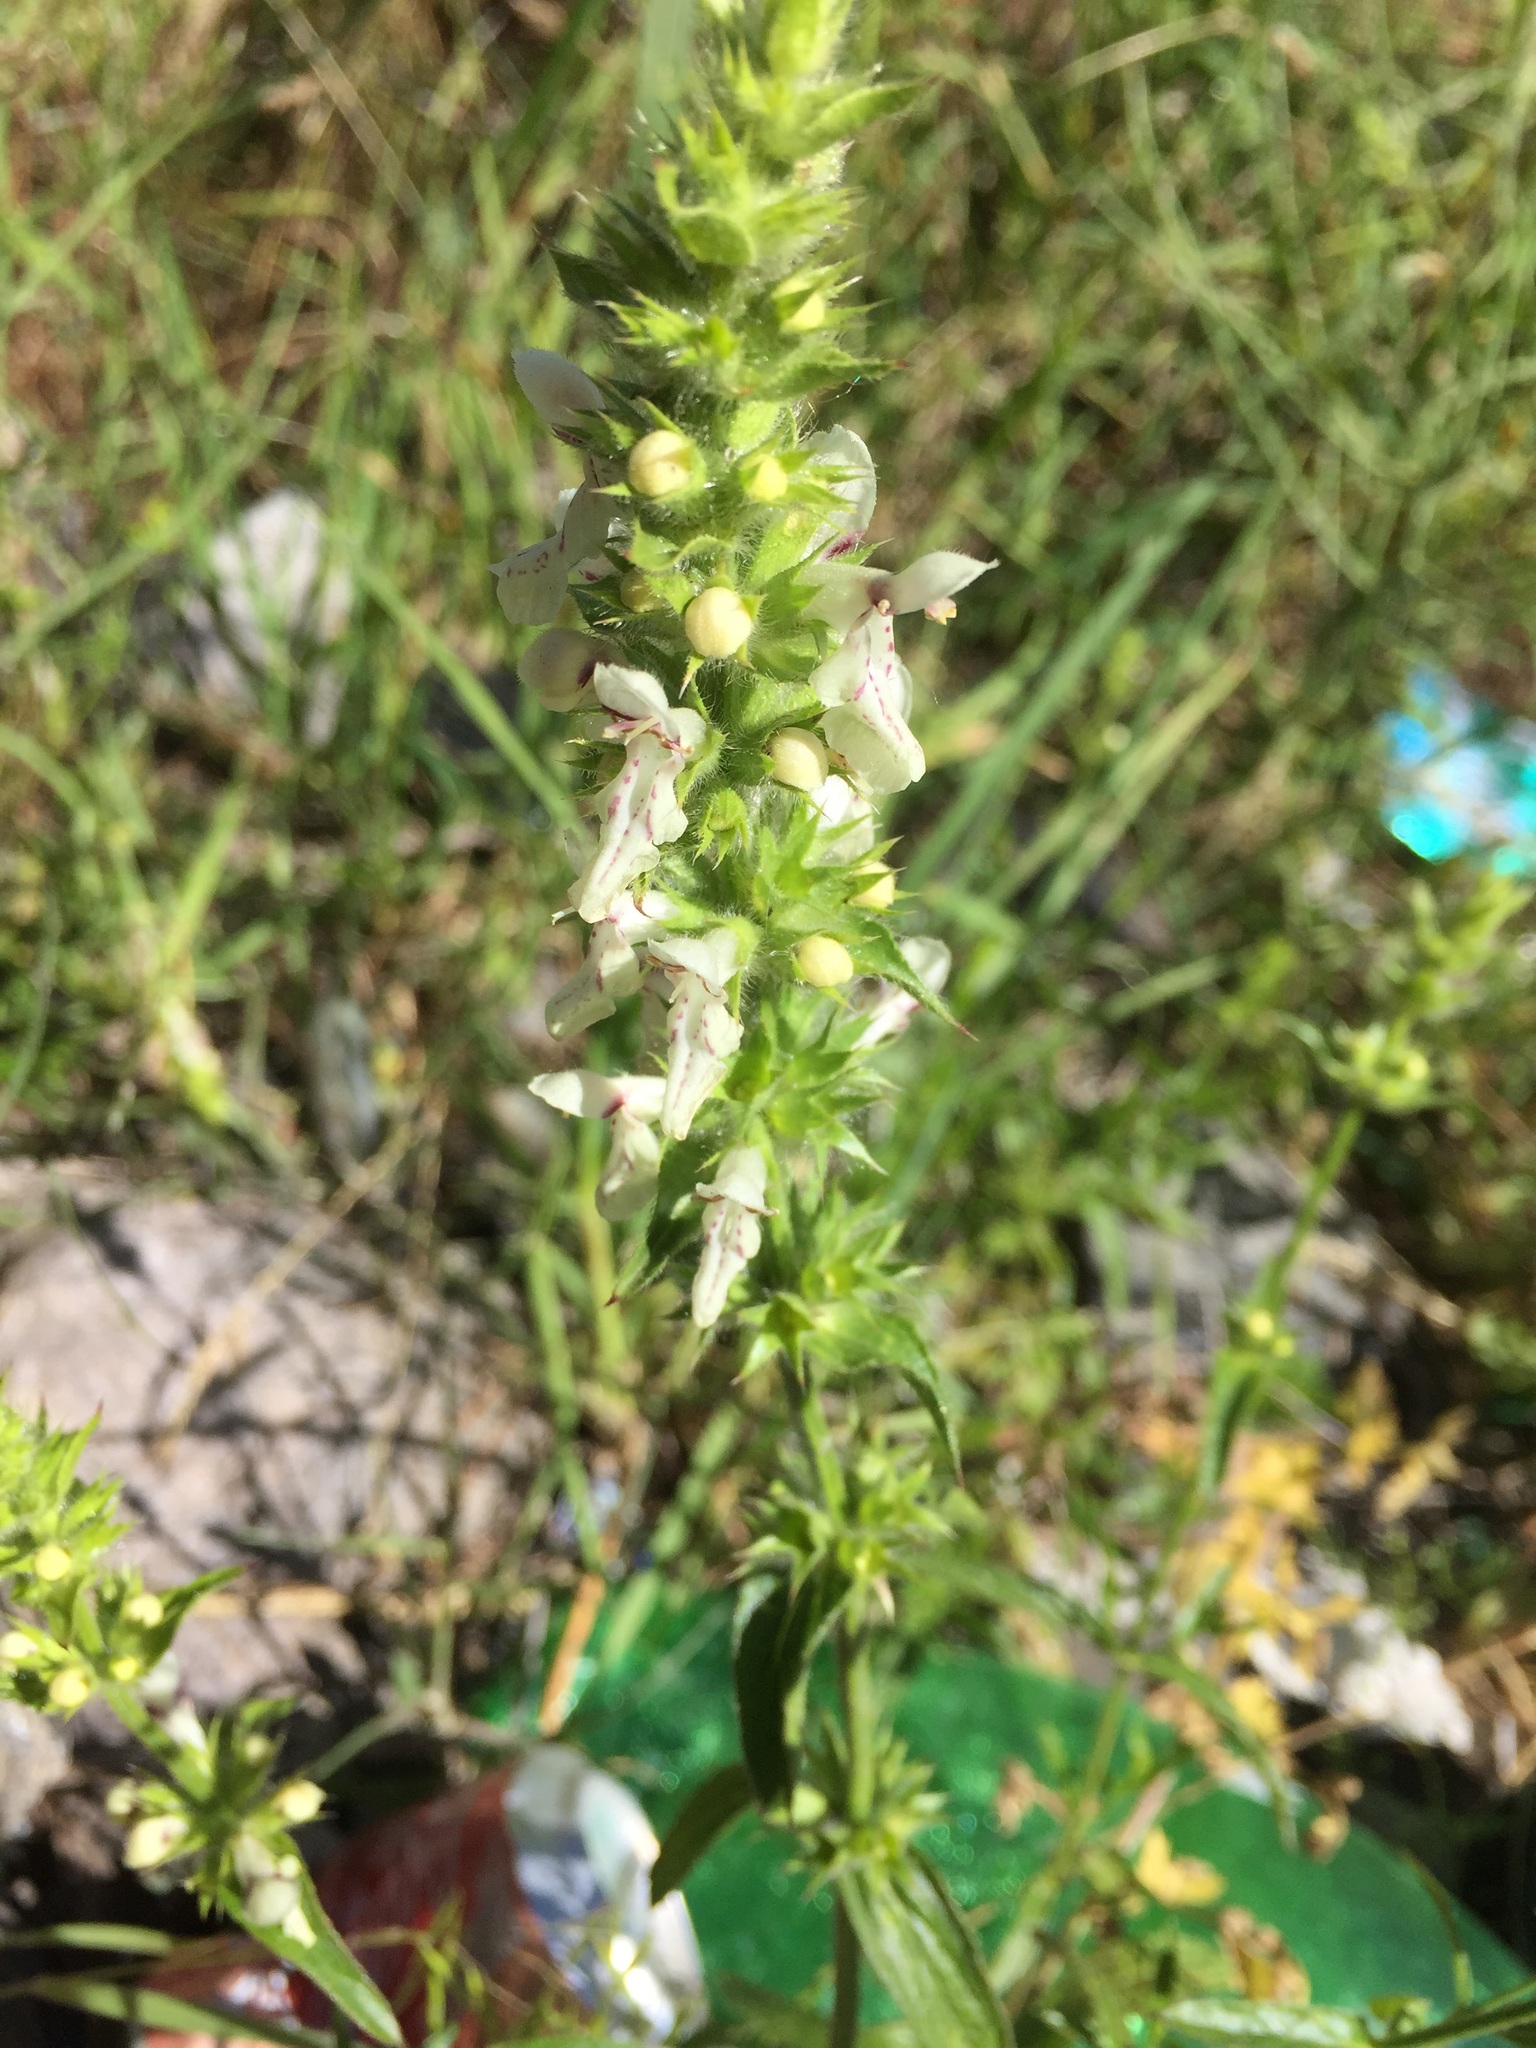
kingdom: Plantae
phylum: Tracheophyta
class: Magnoliopsida
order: Lamiales
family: Lamiaceae
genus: Stachys
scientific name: Stachys recta
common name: Perennial yellow-woundwort
